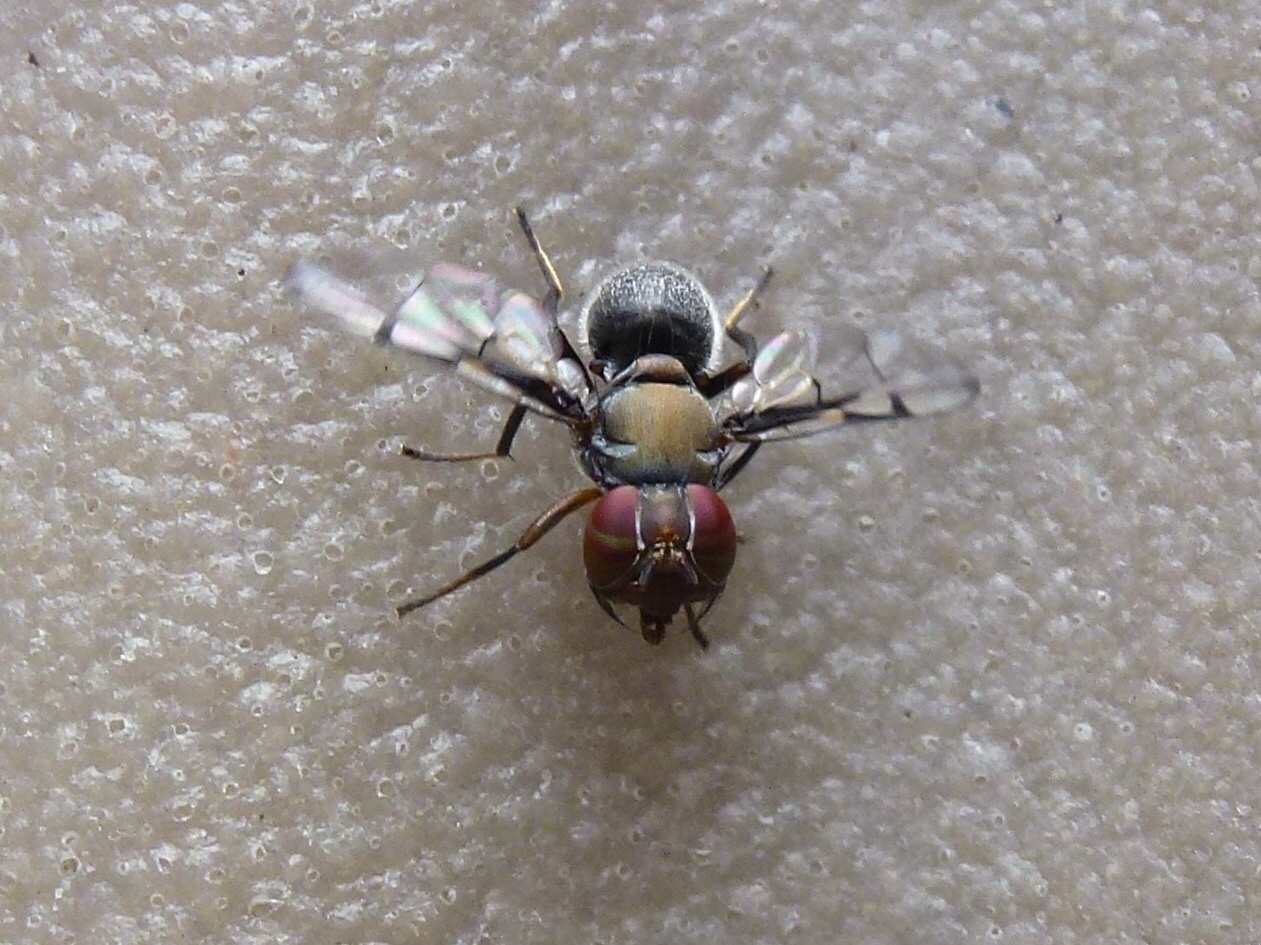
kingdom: Animalia
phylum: Arthropoda
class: Insecta
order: Diptera
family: Platystomatidae
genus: Pogonortalis
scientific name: Pogonortalis doclea
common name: Boatman fly
